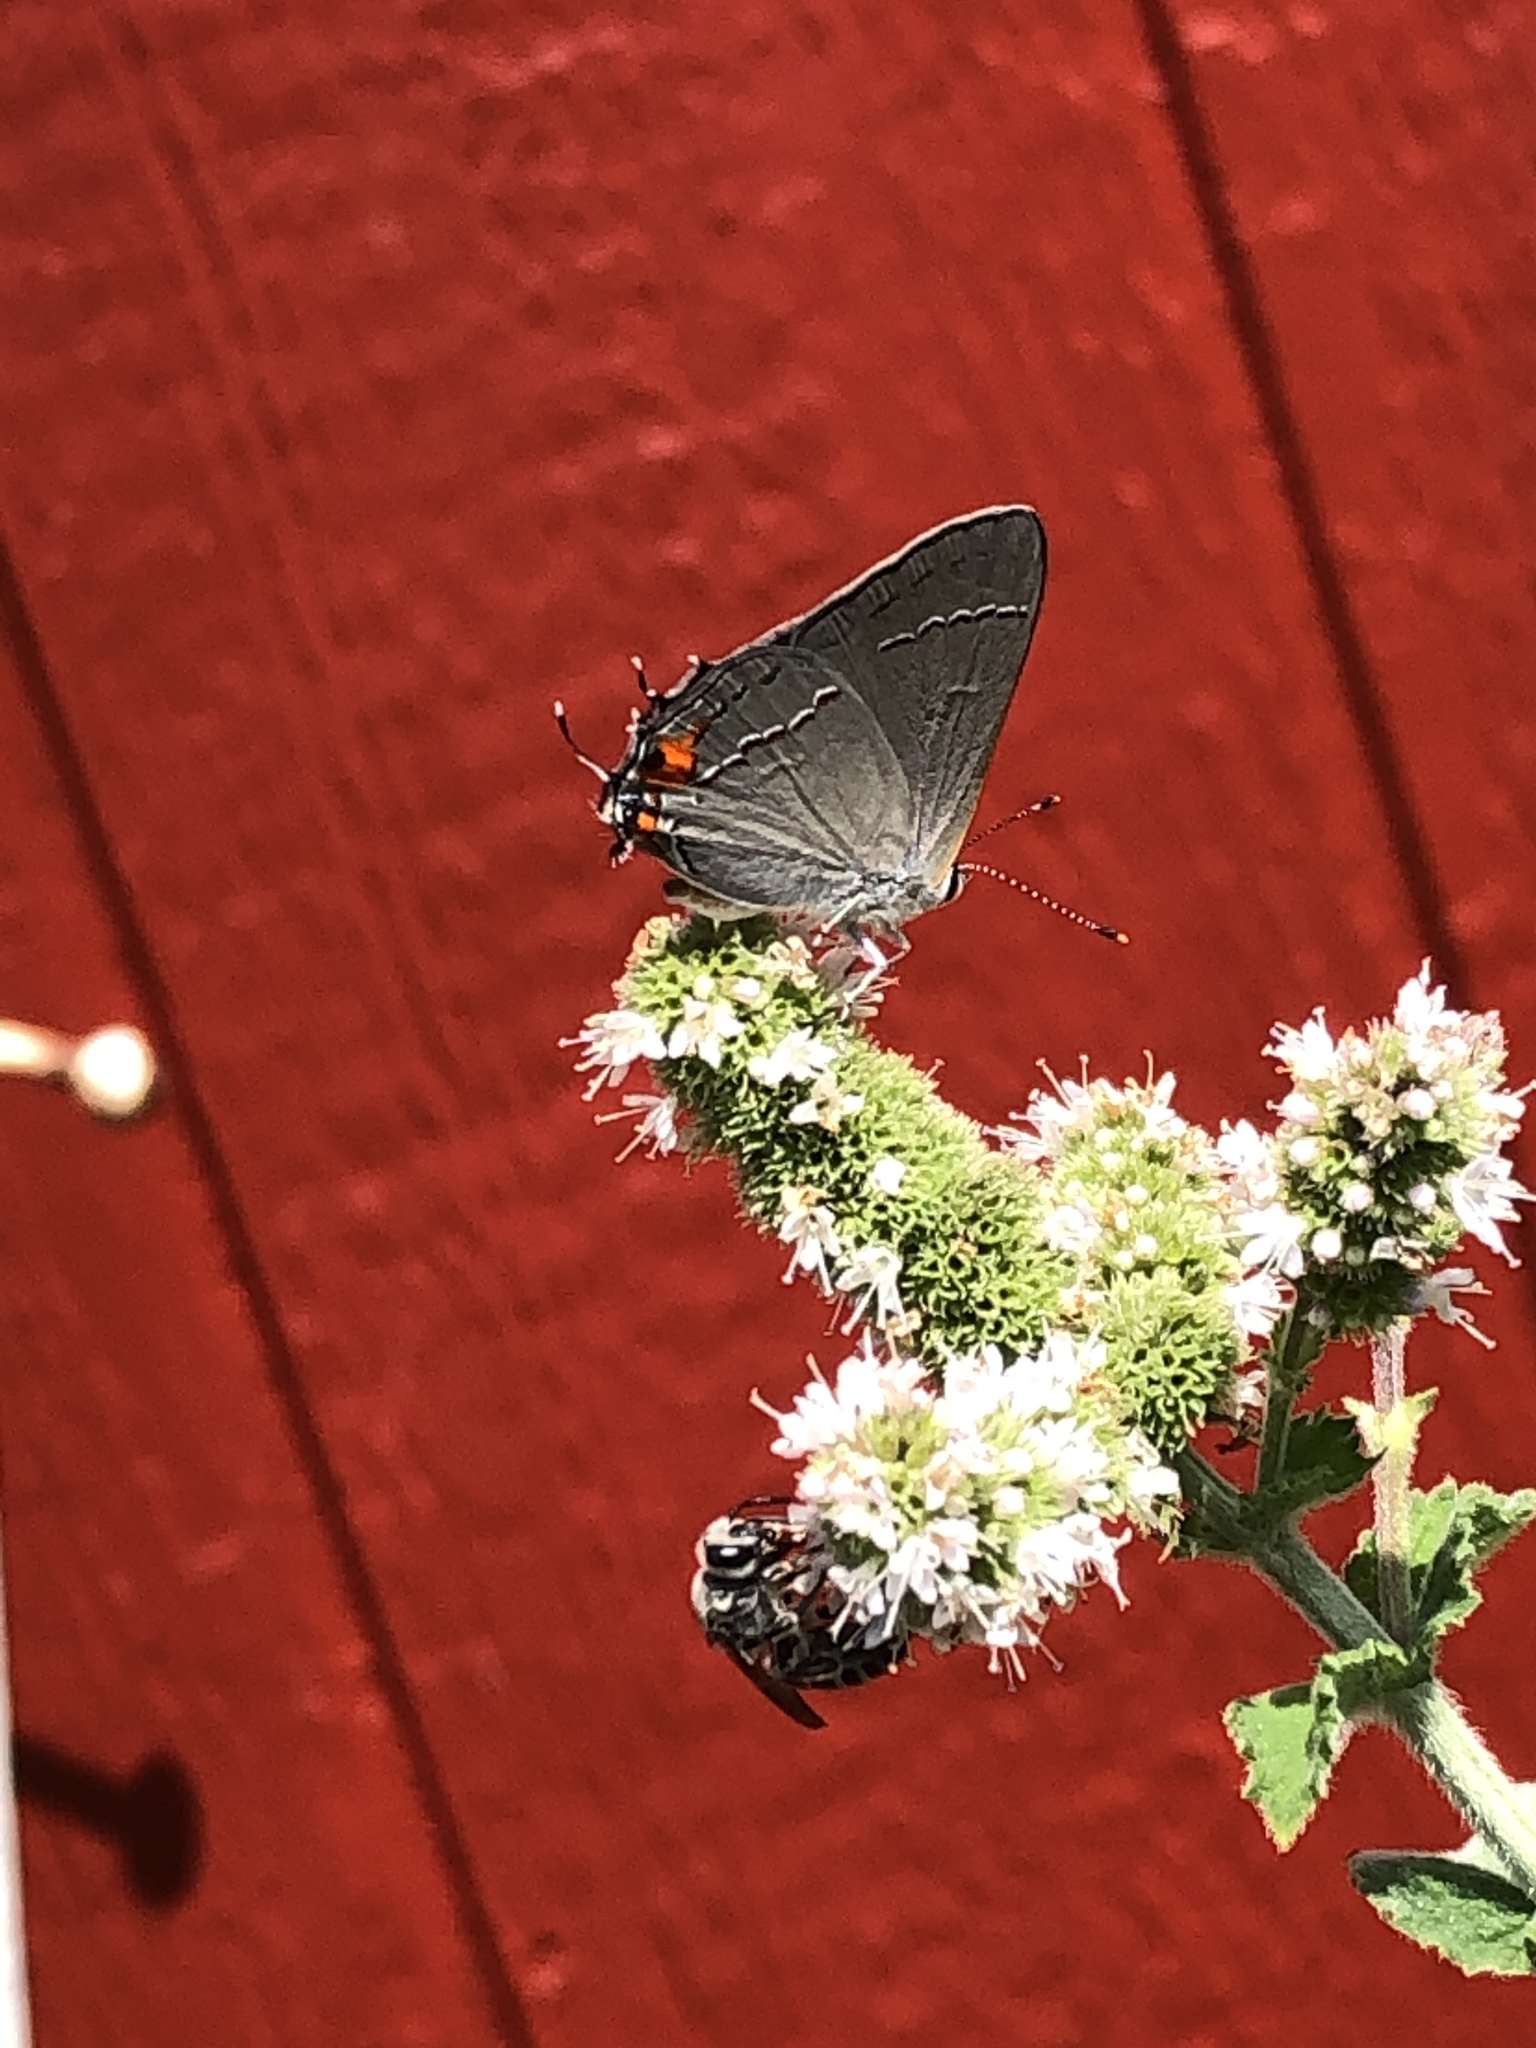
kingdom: Animalia
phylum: Arthropoda
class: Insecta
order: Lepidoptera
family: Lycaenidae
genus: Strymon
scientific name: Strymon melinus
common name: Gray hairstreak
